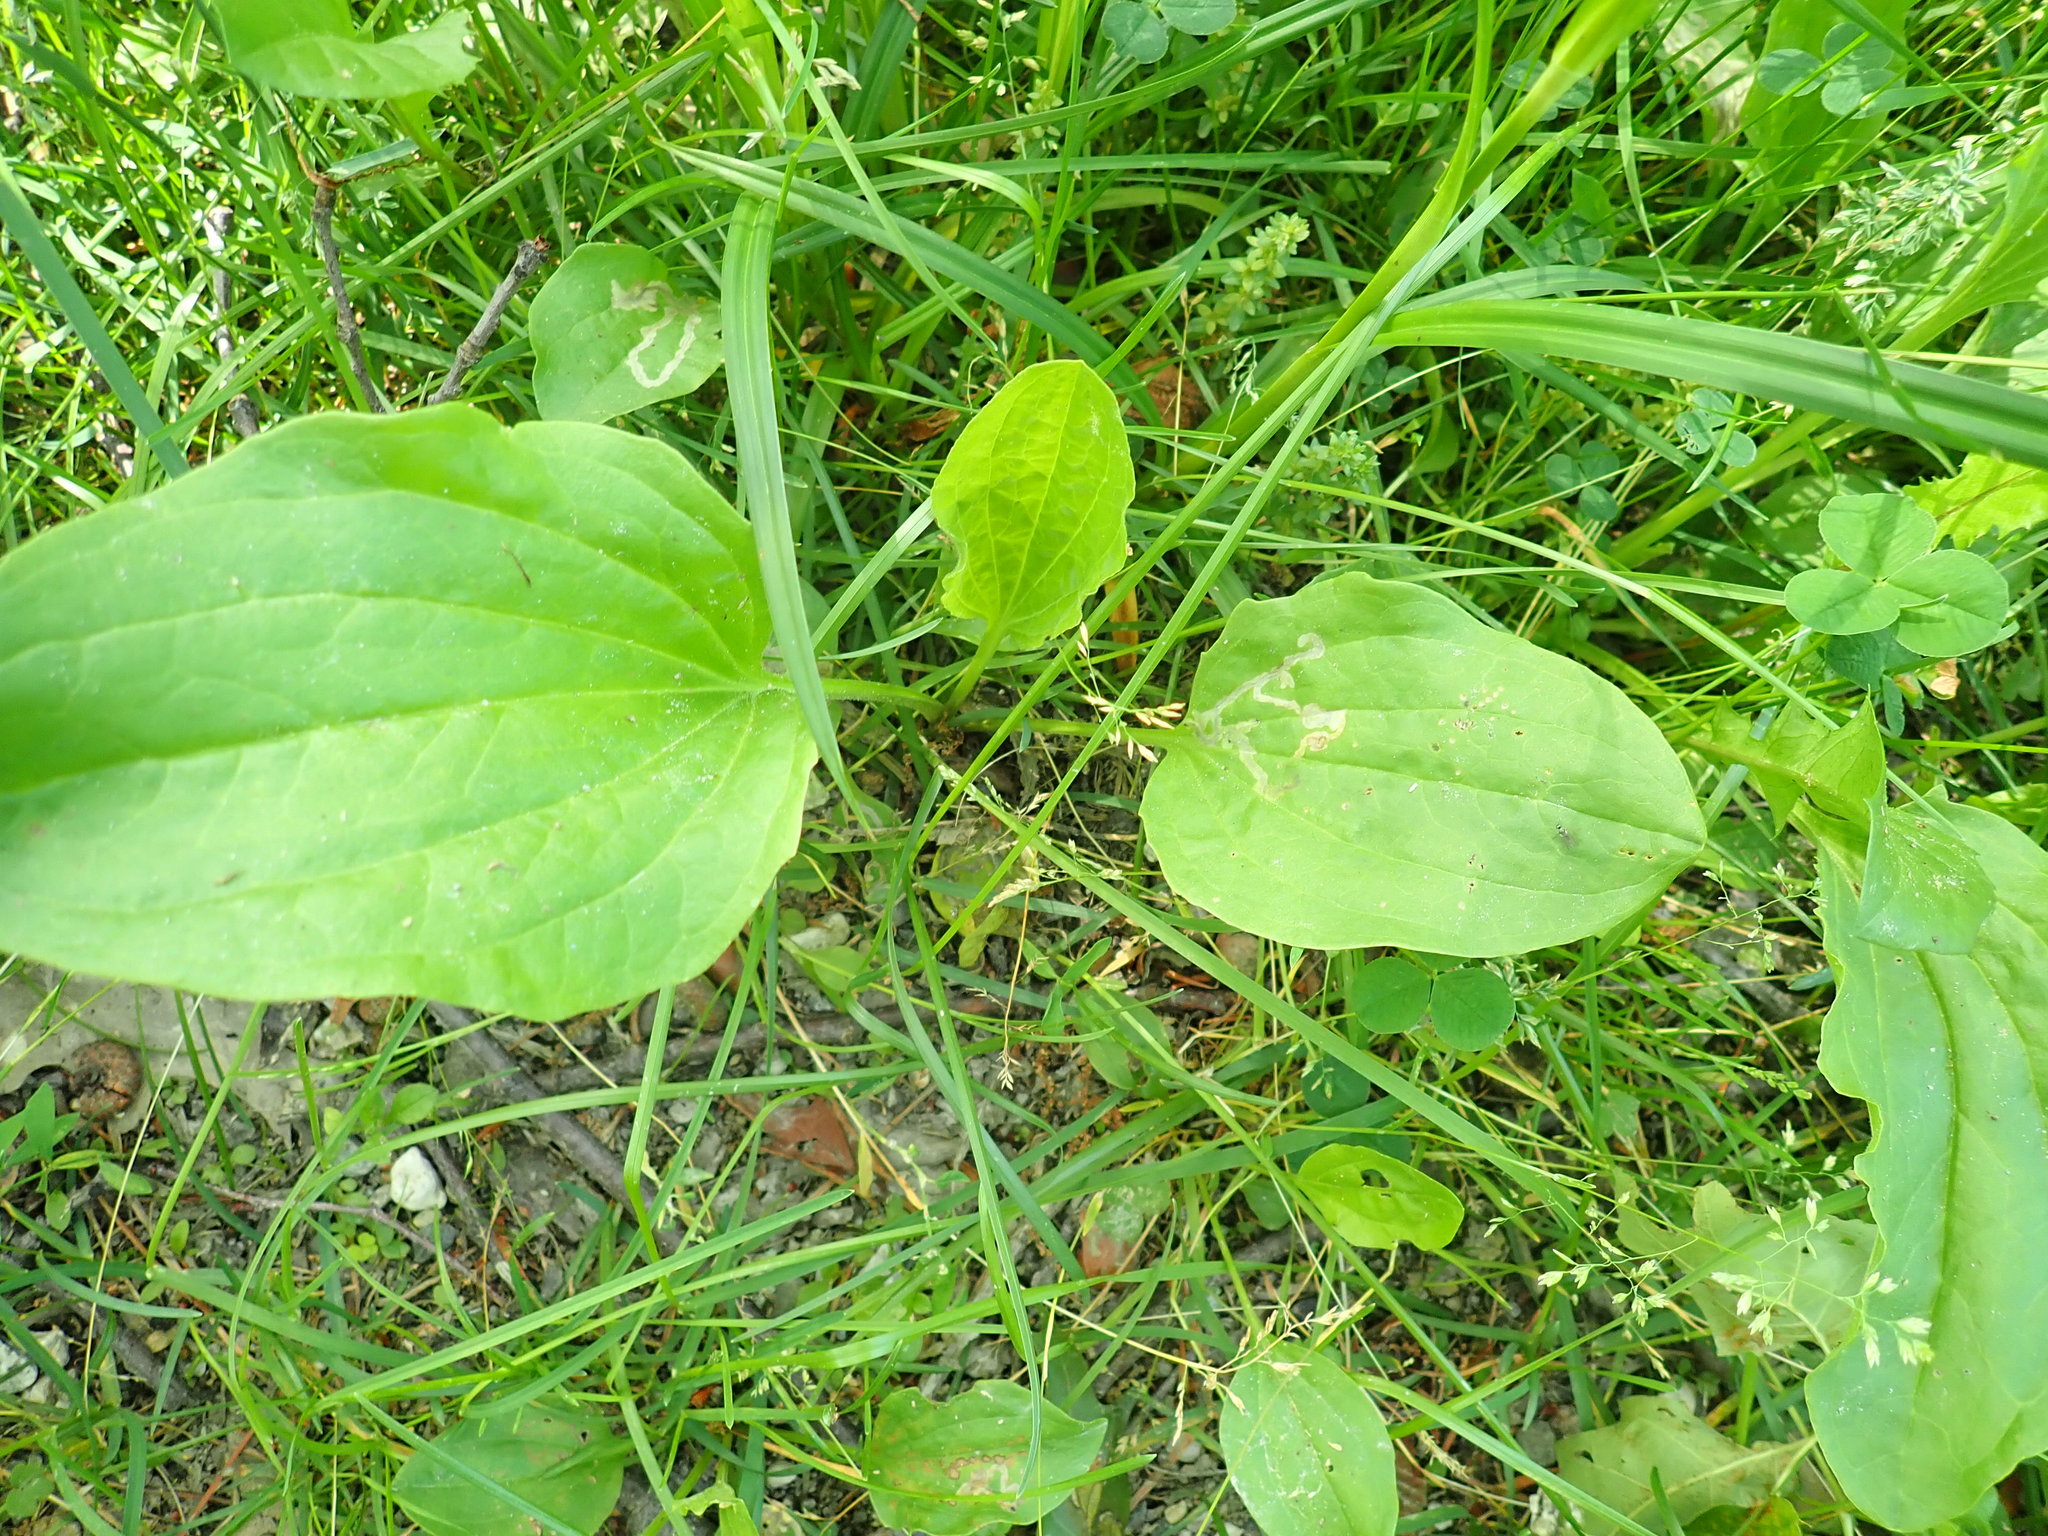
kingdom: Animalia
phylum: Arthropoda
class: Insecta
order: Coleoptera
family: Chrysomelidae
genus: Dibolia
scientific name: Dibolia borealis
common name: Northern plantain flea beetle
